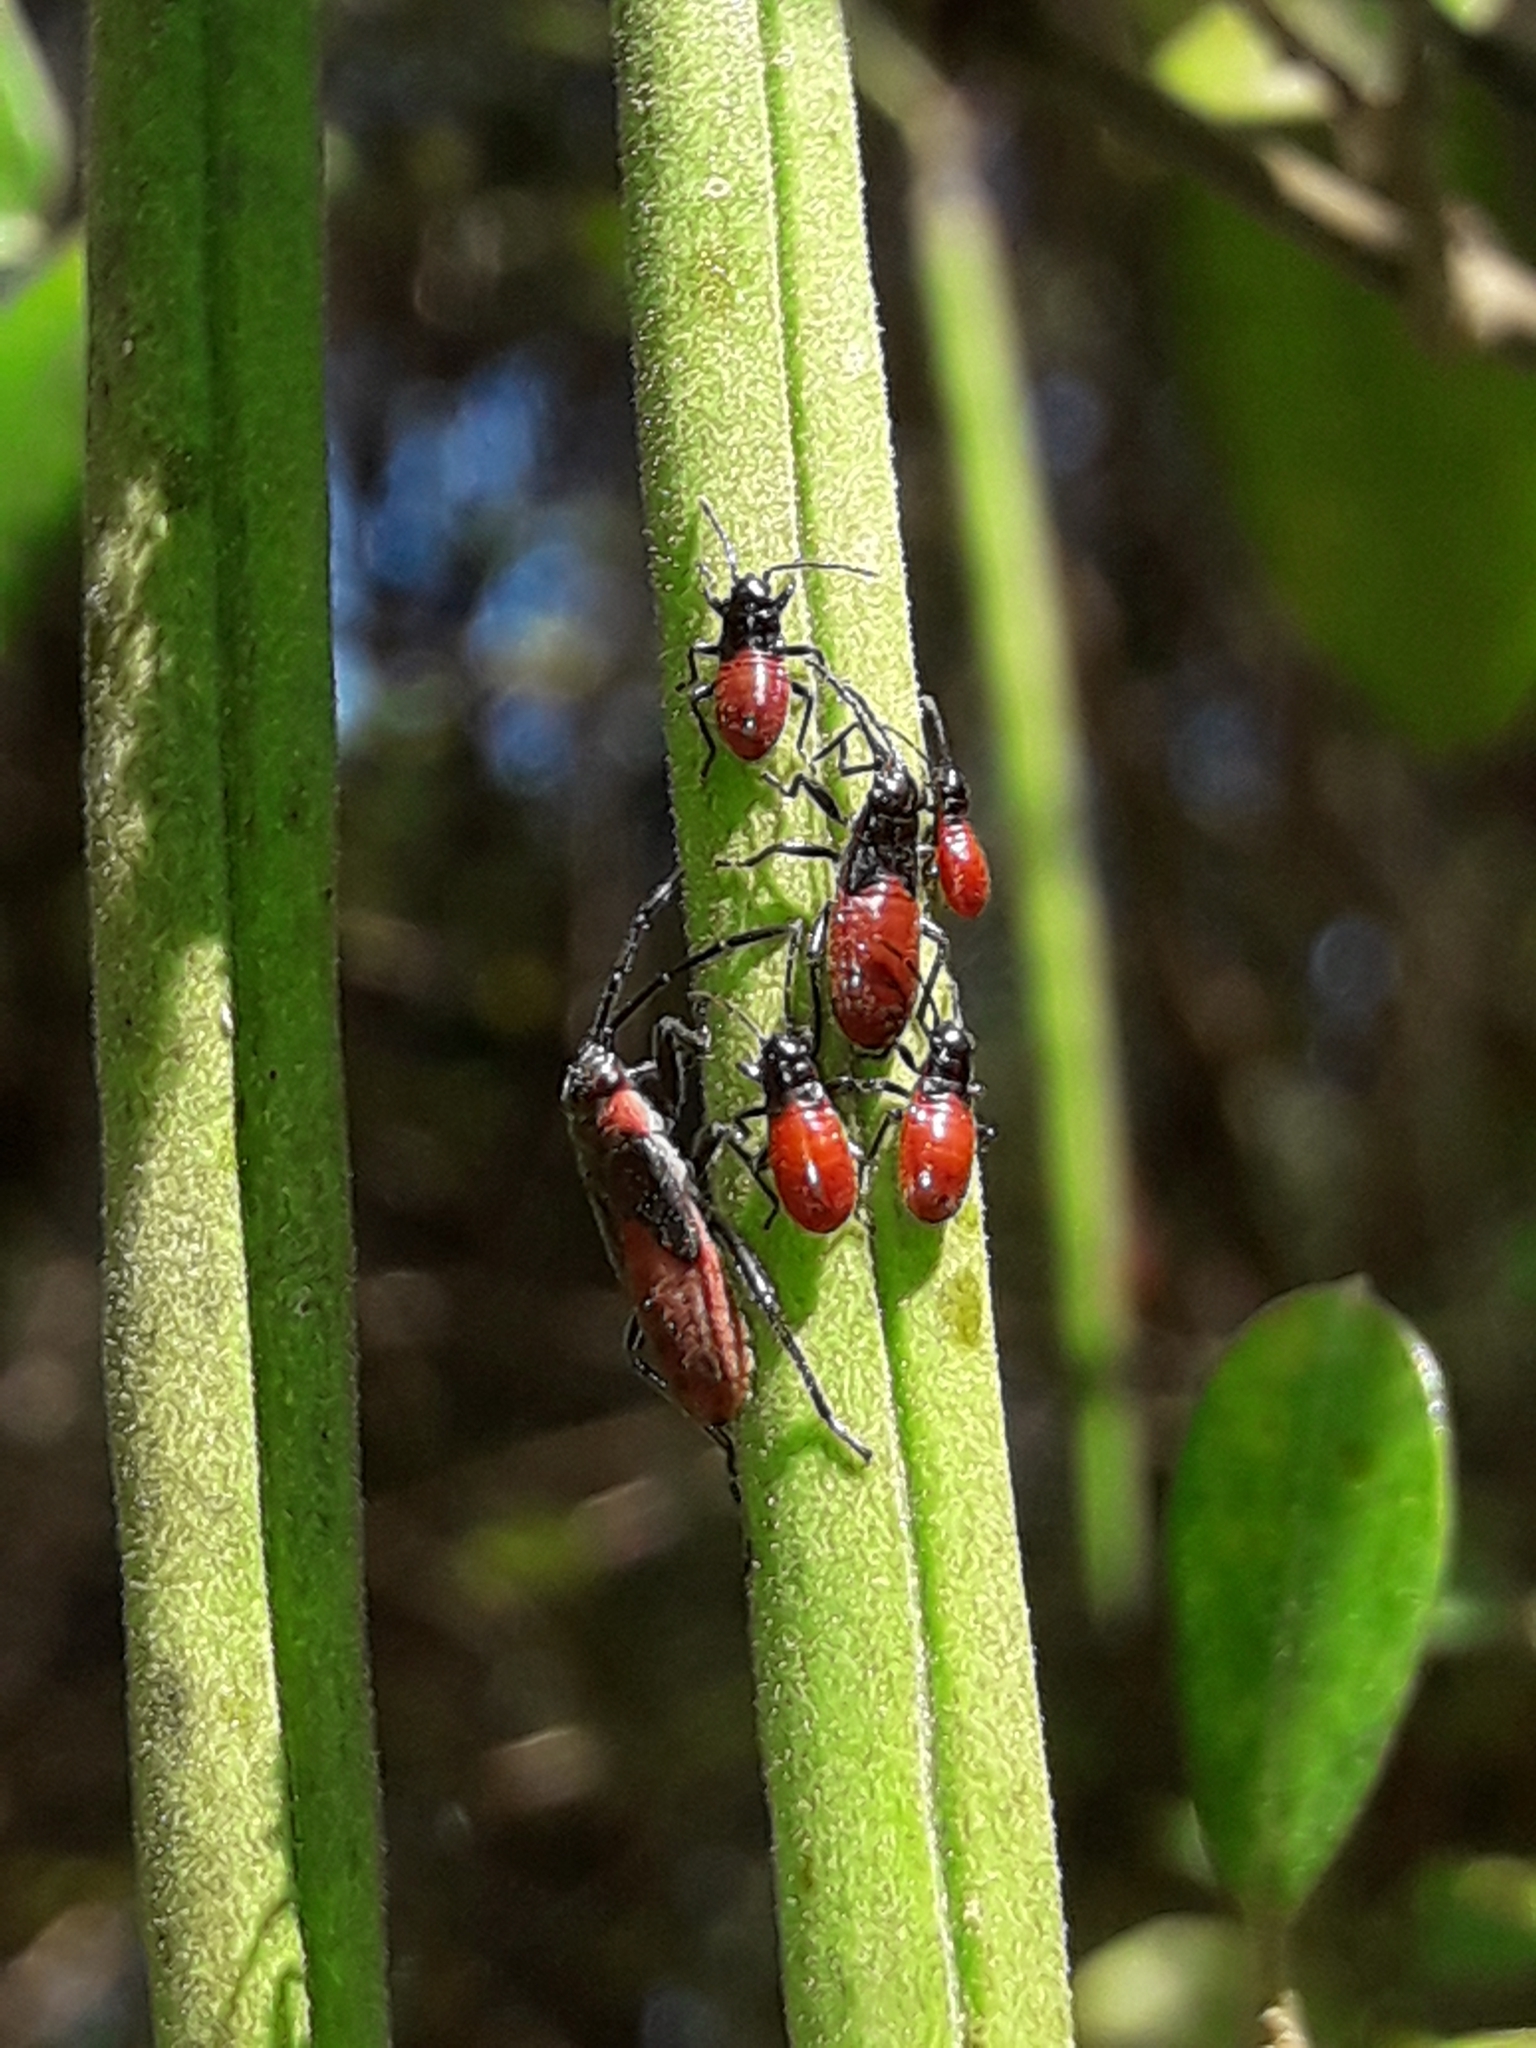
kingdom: Animalia
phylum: Arthropoda
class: Insecta
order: Hemiptera
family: Lygaeidae
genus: Arocatus
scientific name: Arocatus rusticus
